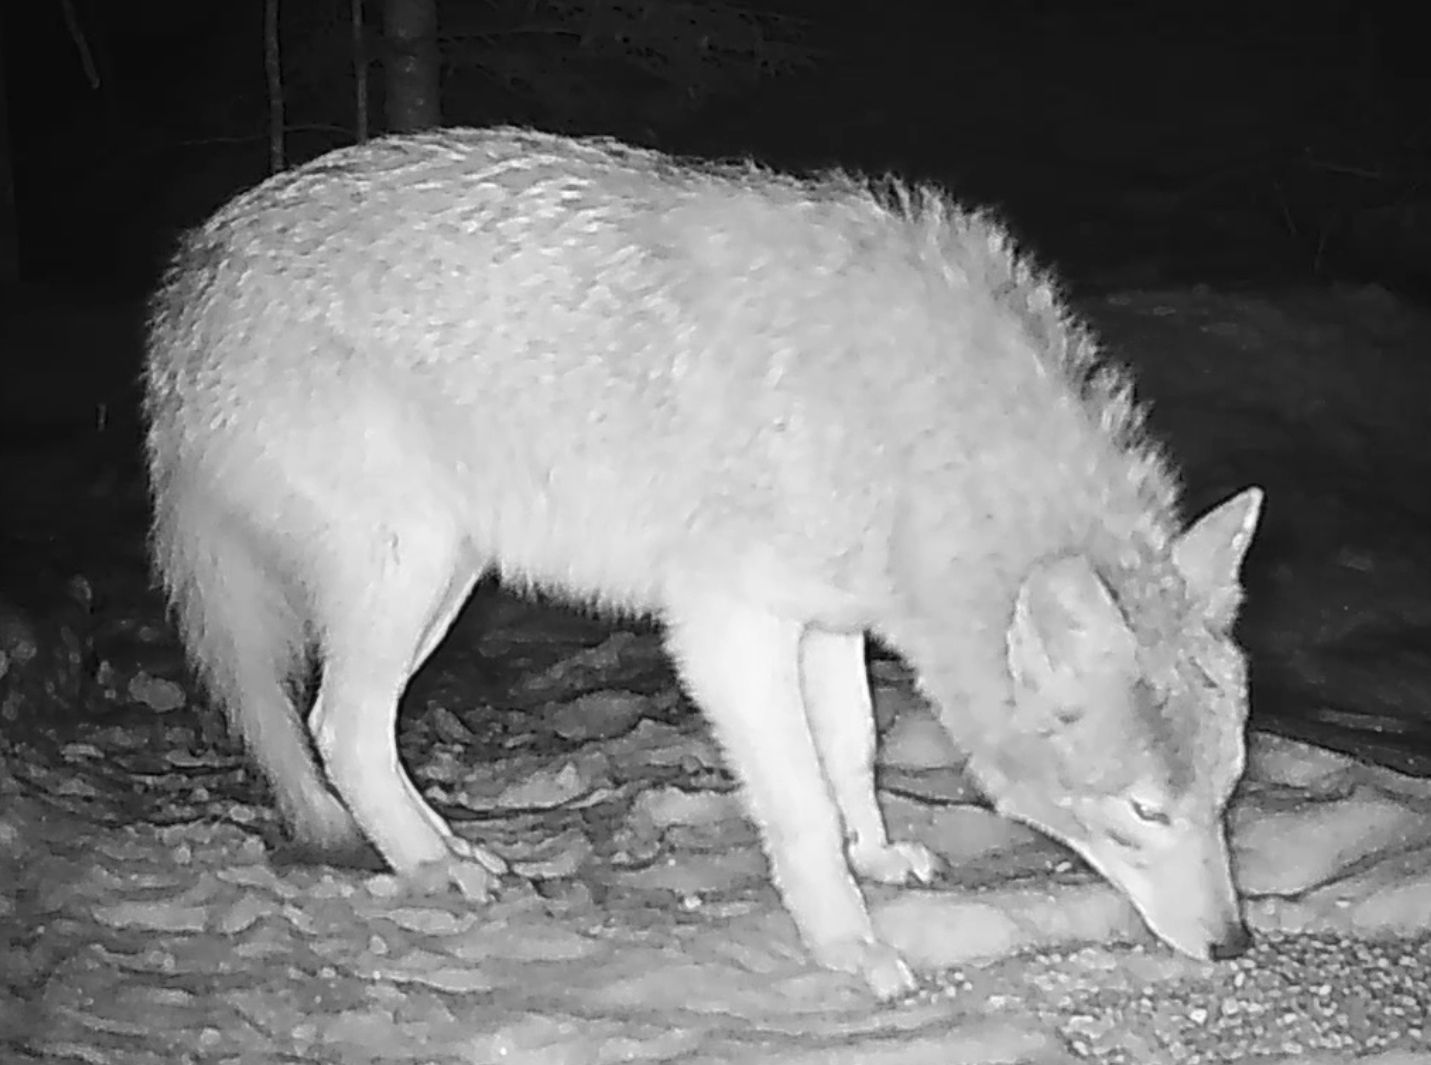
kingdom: Animalia
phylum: Chordata
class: Mammalia
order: Carnivora
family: Canidae
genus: Canis
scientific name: Canis latrans
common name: Coyote
